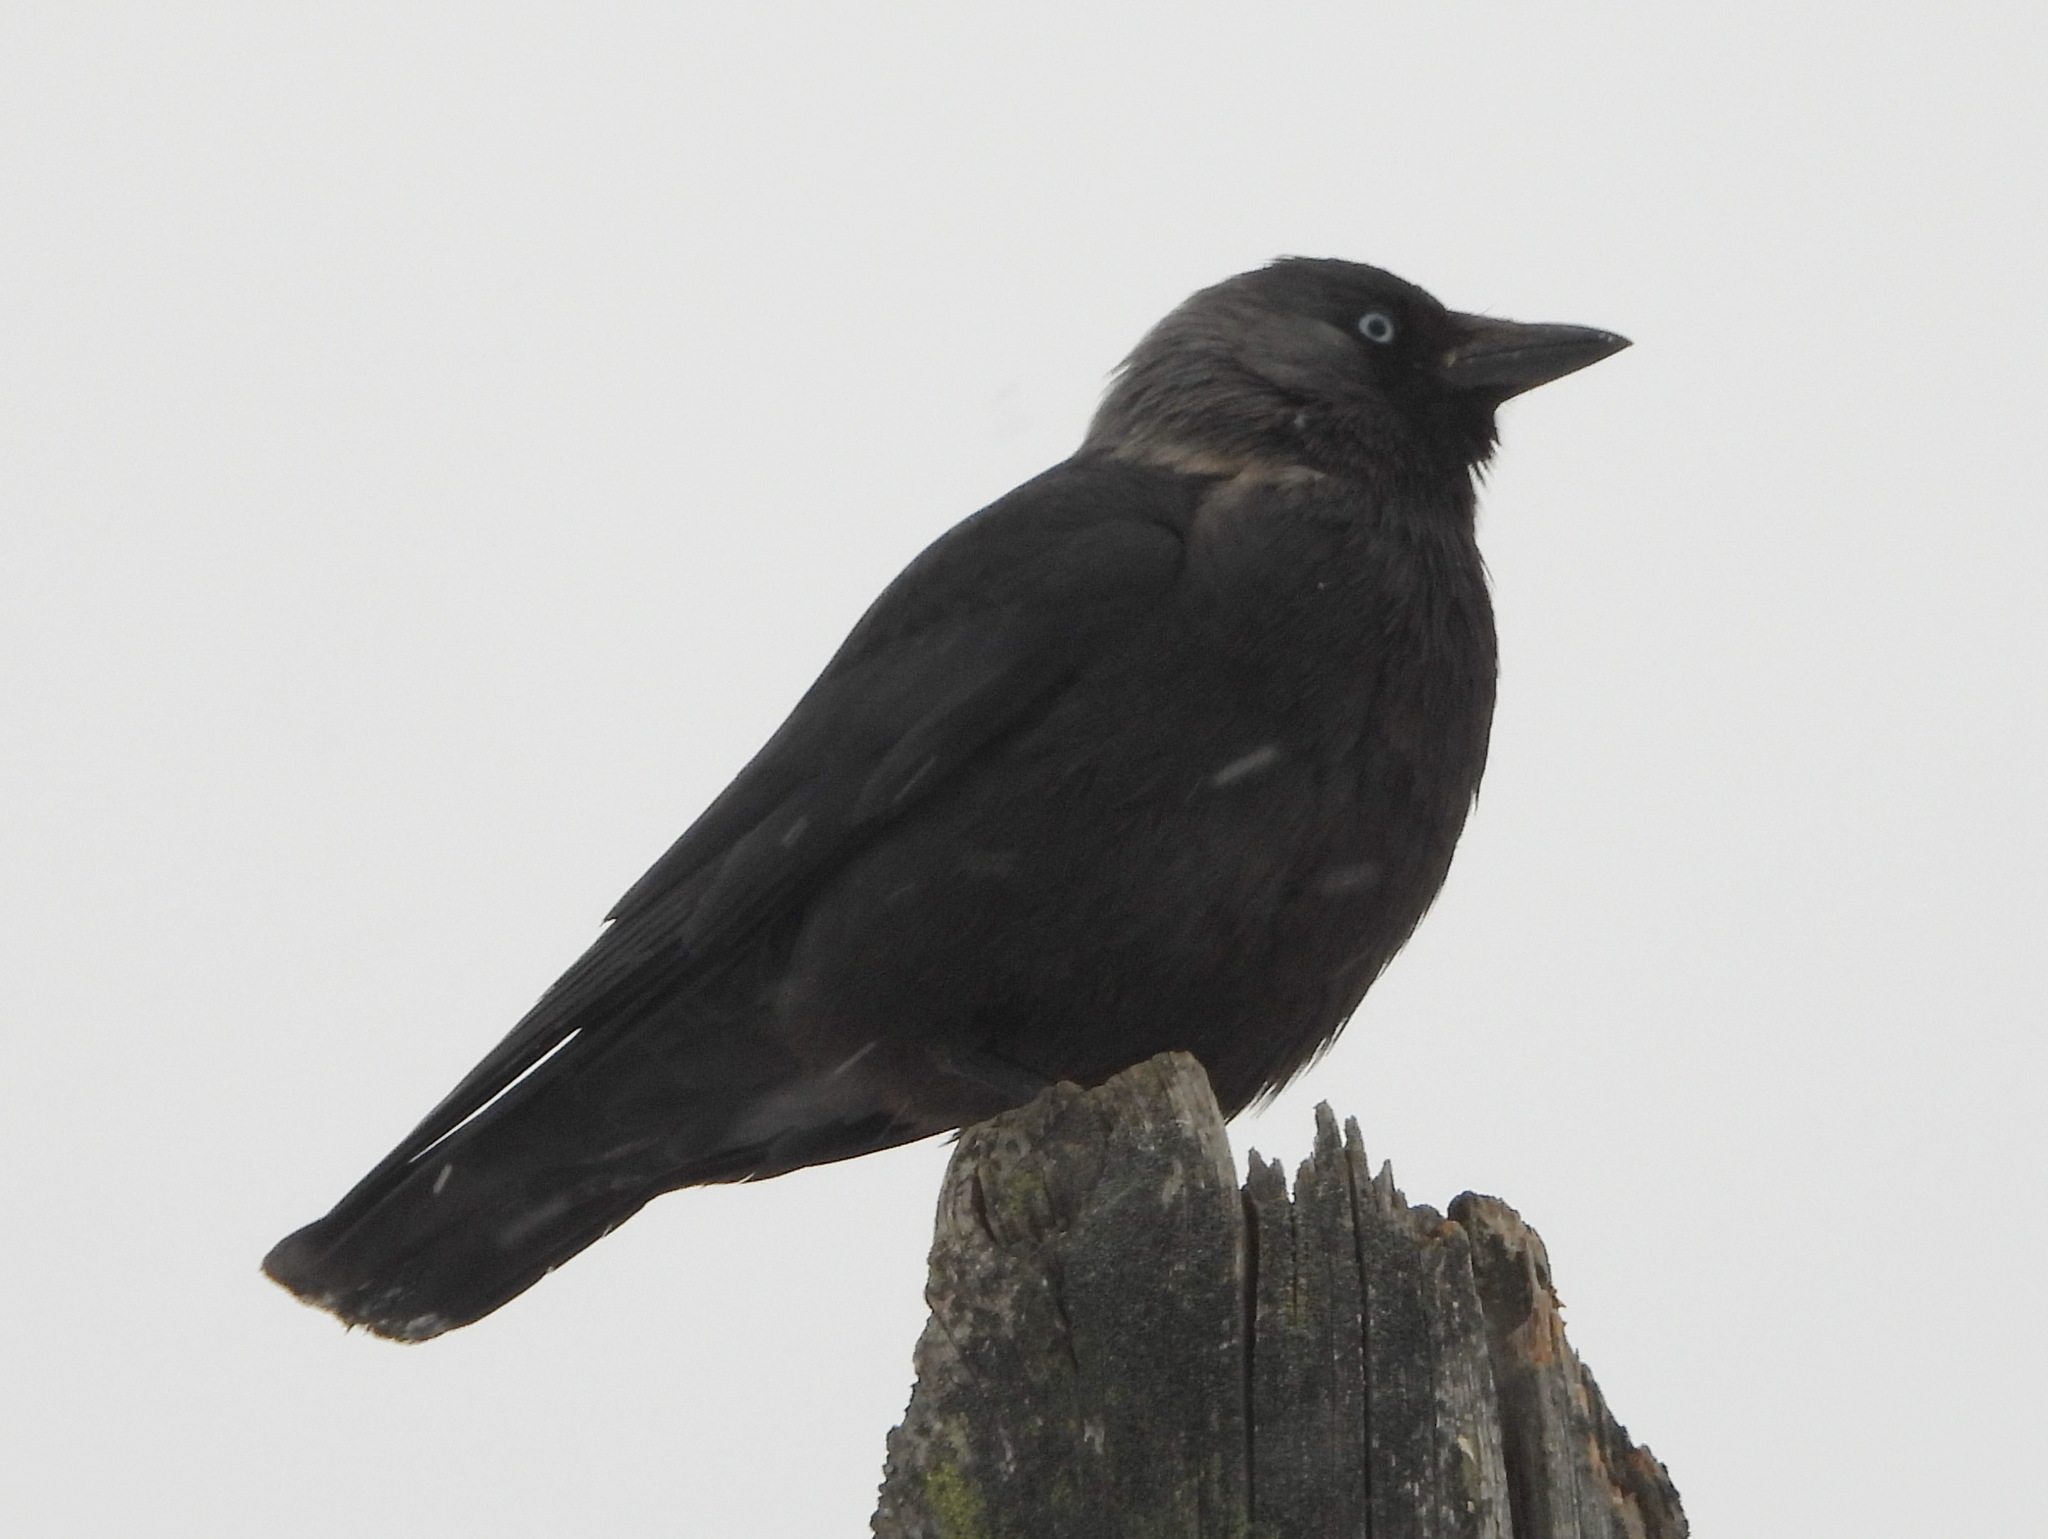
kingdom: Animalia
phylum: Chordata
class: Aves
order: Passeriformes
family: Corvidae
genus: Coloeus
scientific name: Coloeus monedula
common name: Western jackdaw
